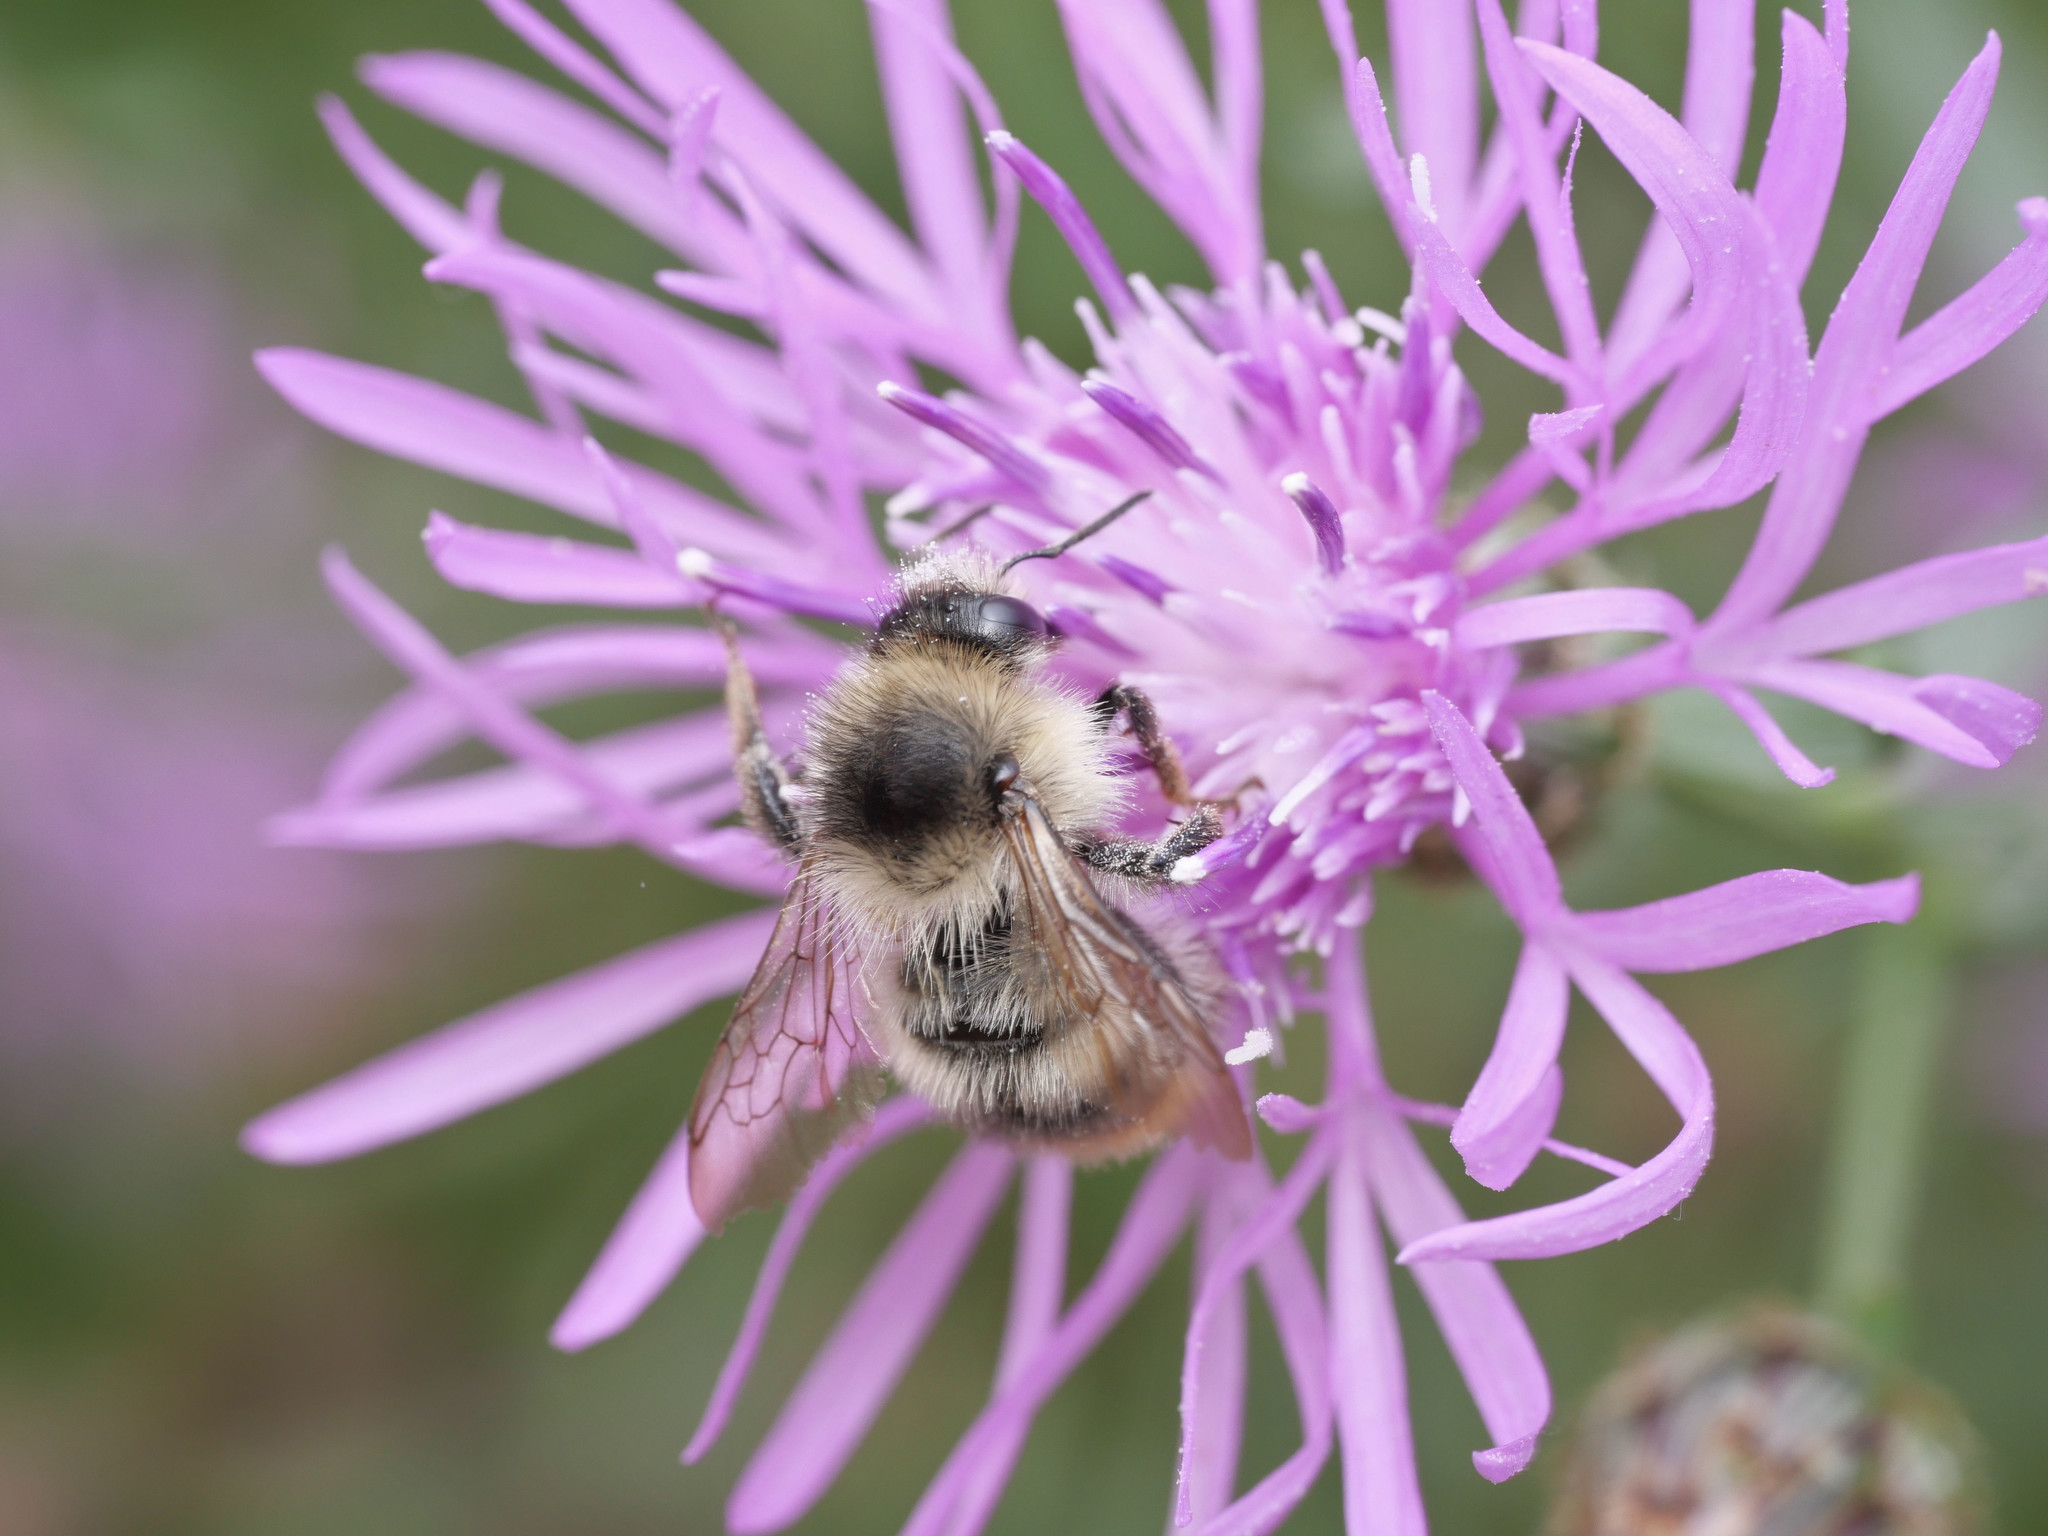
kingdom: Animalia
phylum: Arthropoda
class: Insecta
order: Hymenoptera
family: Apidae
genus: Bombus
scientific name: Bombus sylvarum
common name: Shrill carder bee
